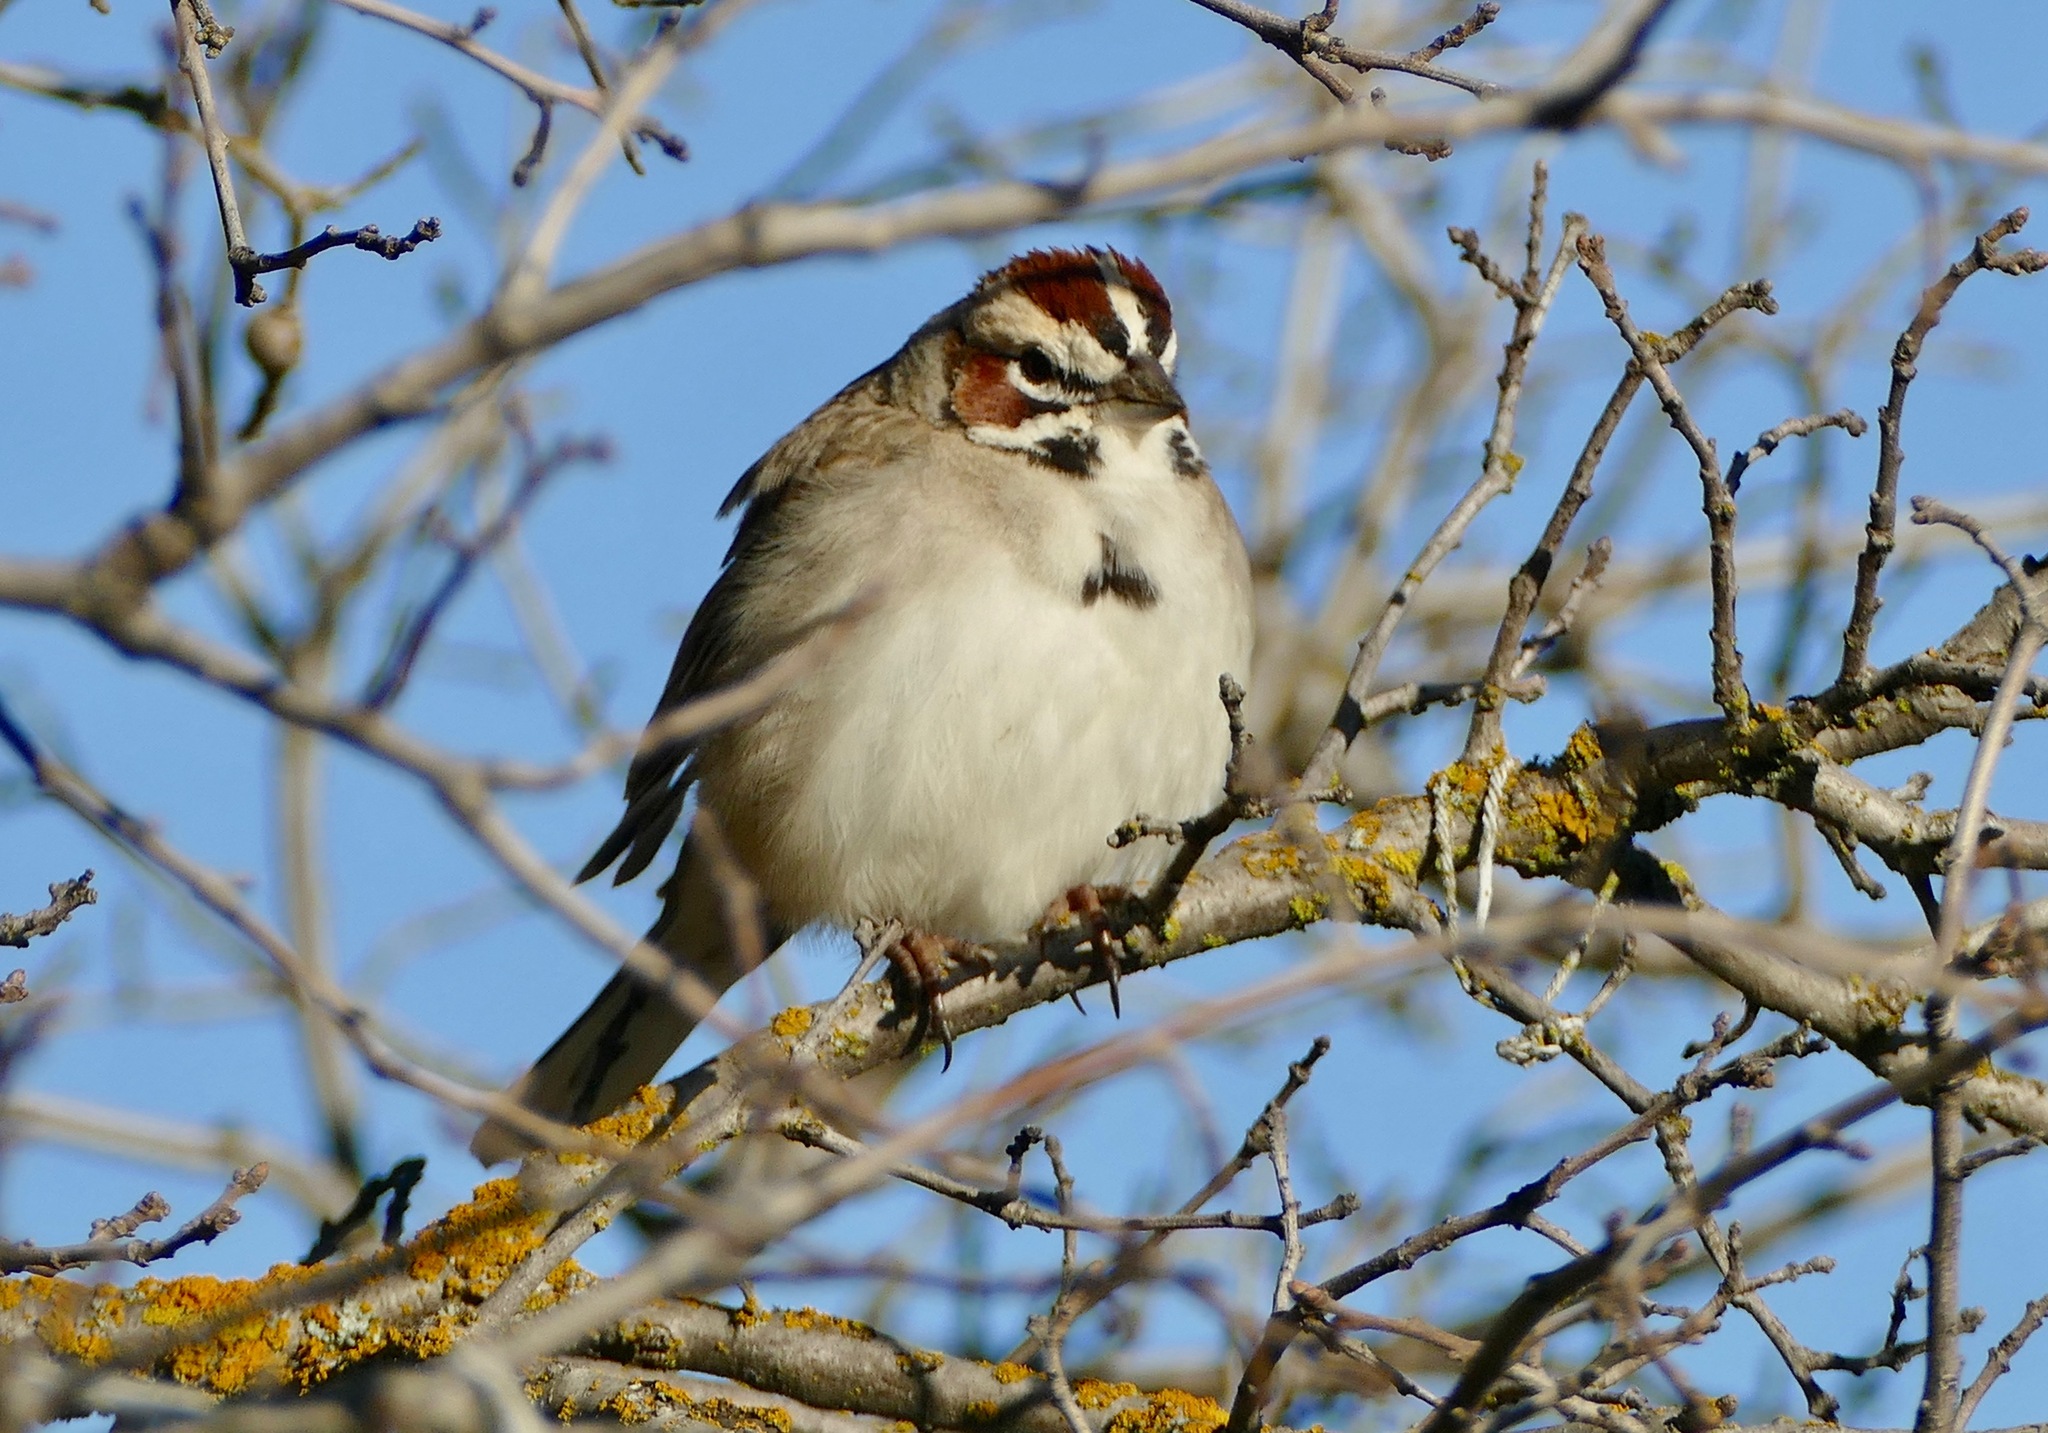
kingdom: Animalia
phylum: Chordata
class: Aves
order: Passeriformes
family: Passerellidae
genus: Chondestes
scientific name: Chondestes grammacus
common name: Lark sparrow
